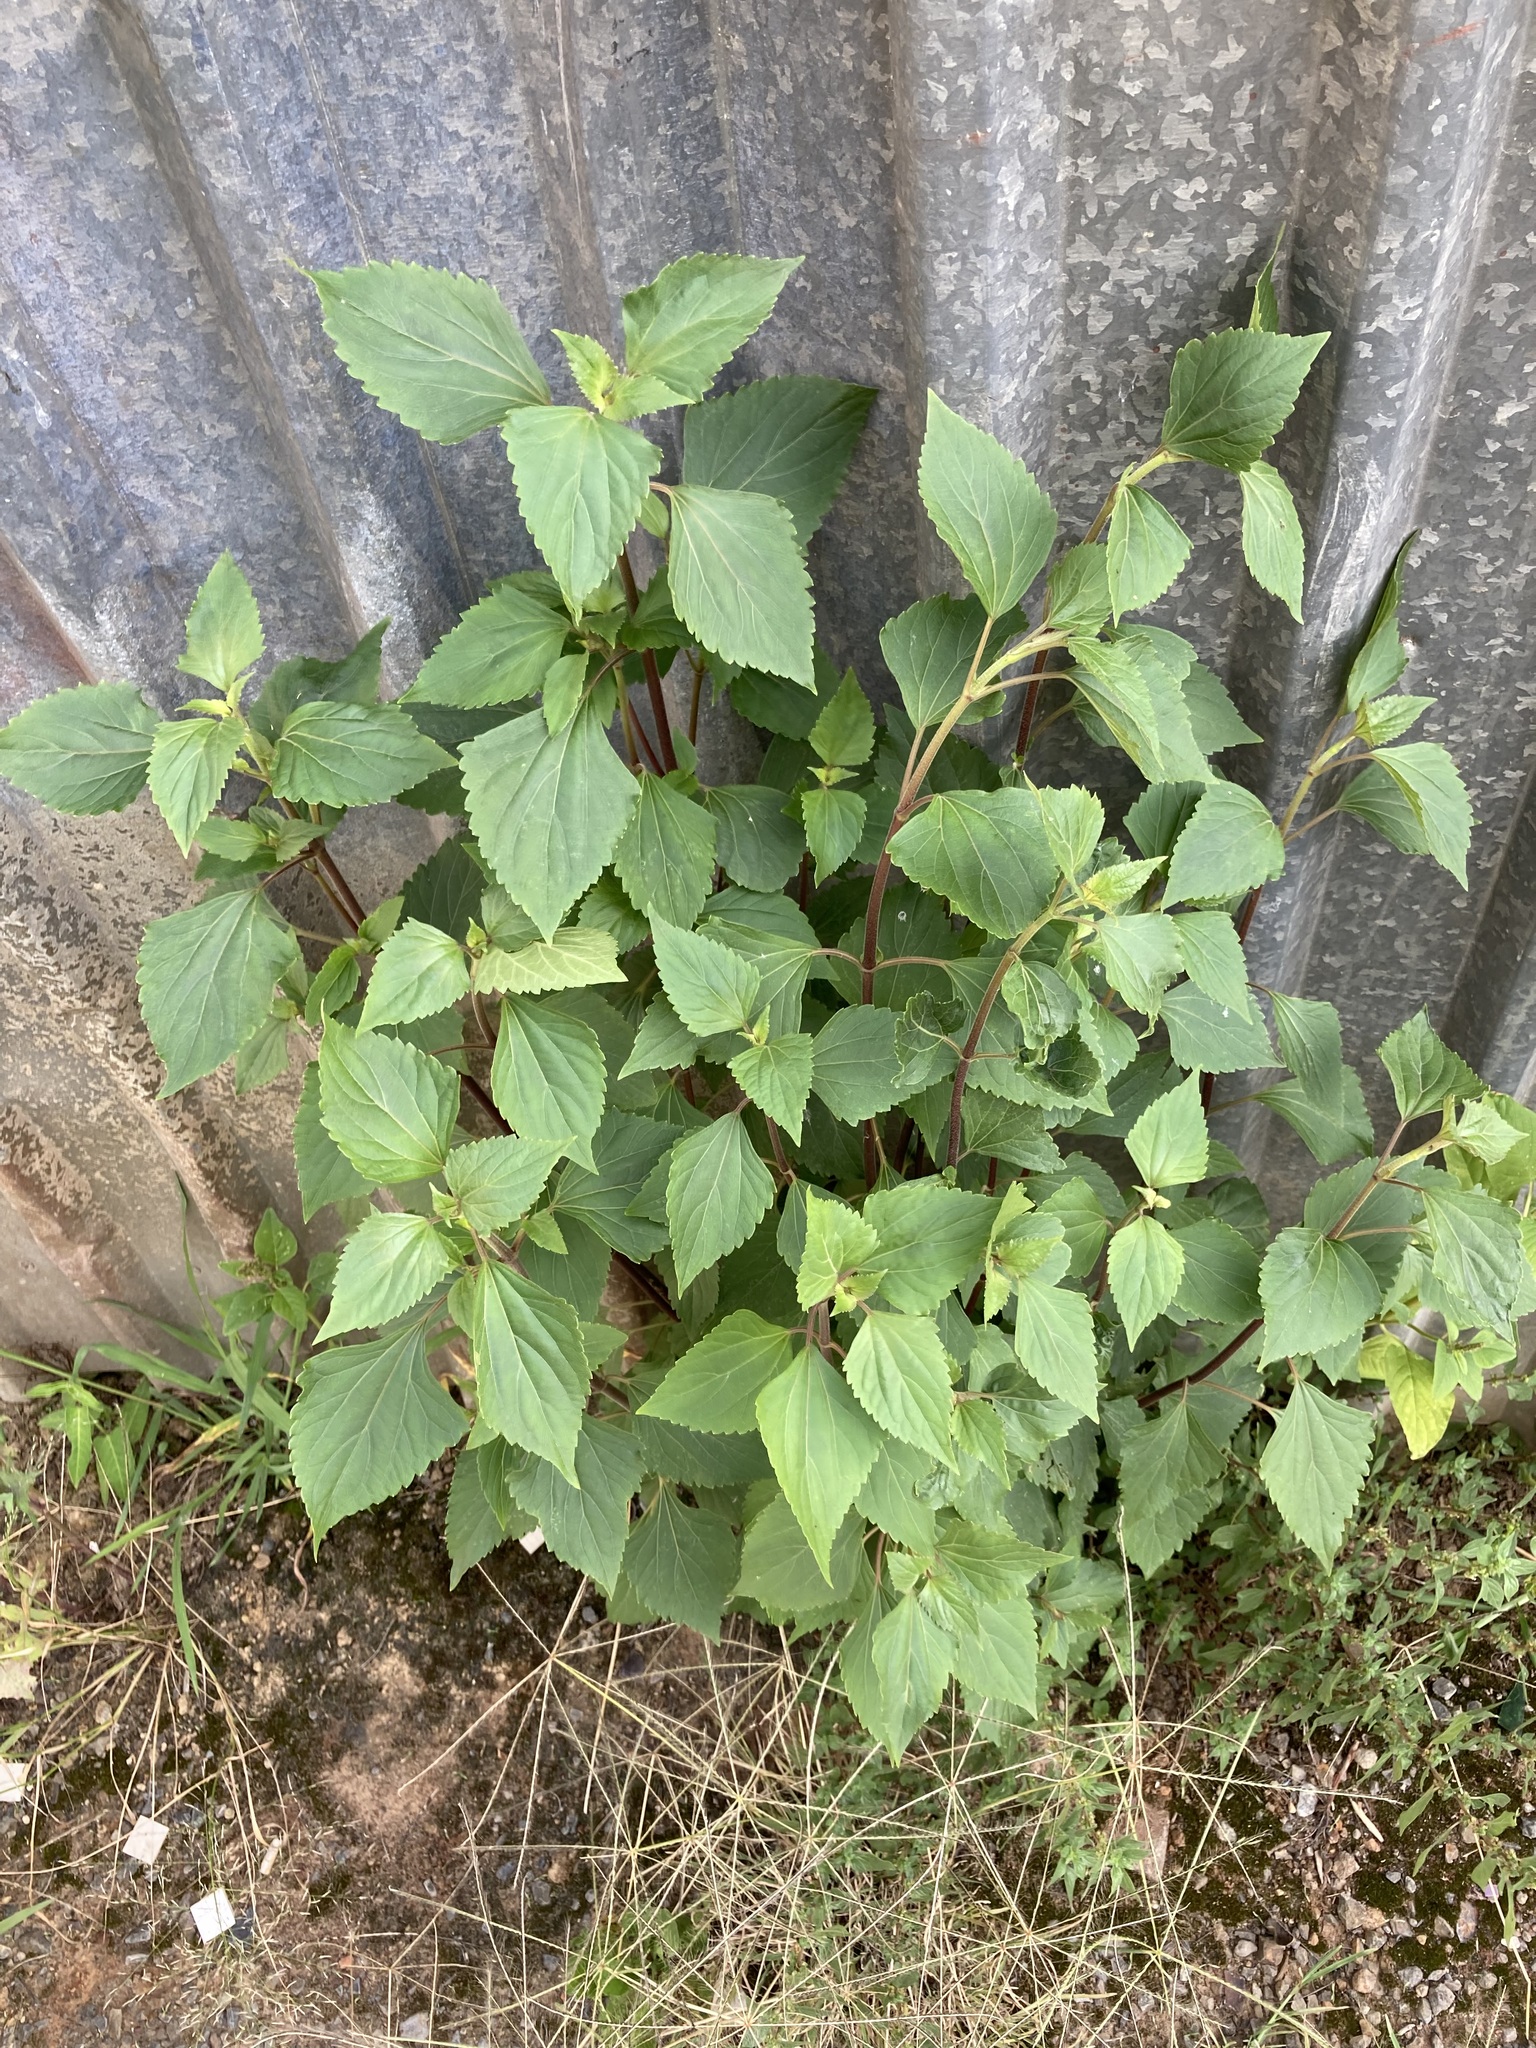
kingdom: Plantae
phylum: Tracheophyta
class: Magnoliopsida
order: Asterales
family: Asteraceae
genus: Ageratina
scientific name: Ageratina adenophora
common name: Sticky snakeroot
